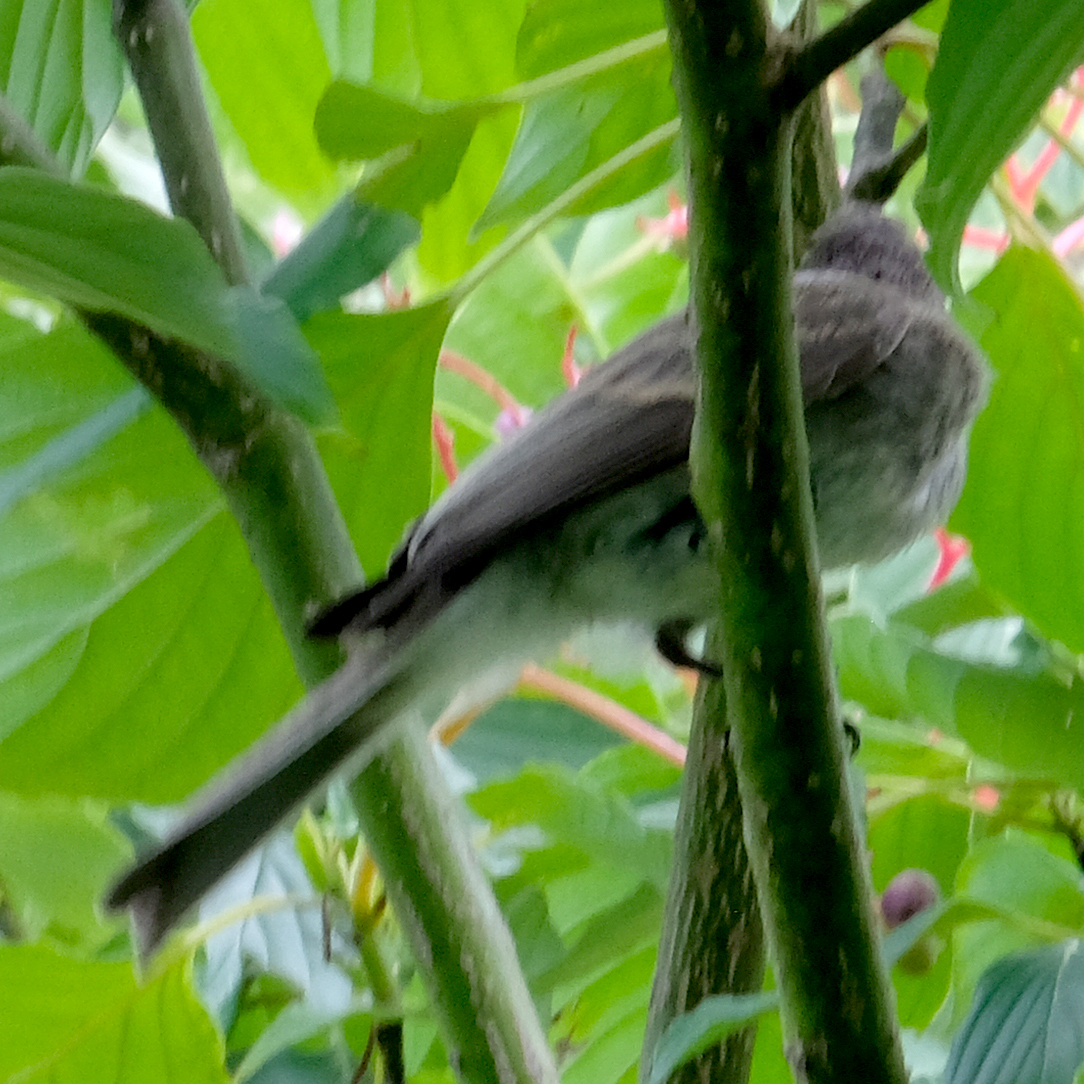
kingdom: Animalia
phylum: Chordata
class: Aves
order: Passeriformes
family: Tyrannidae
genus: Sayornis
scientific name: Sayornis phoebe
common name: Eastern phoebe
